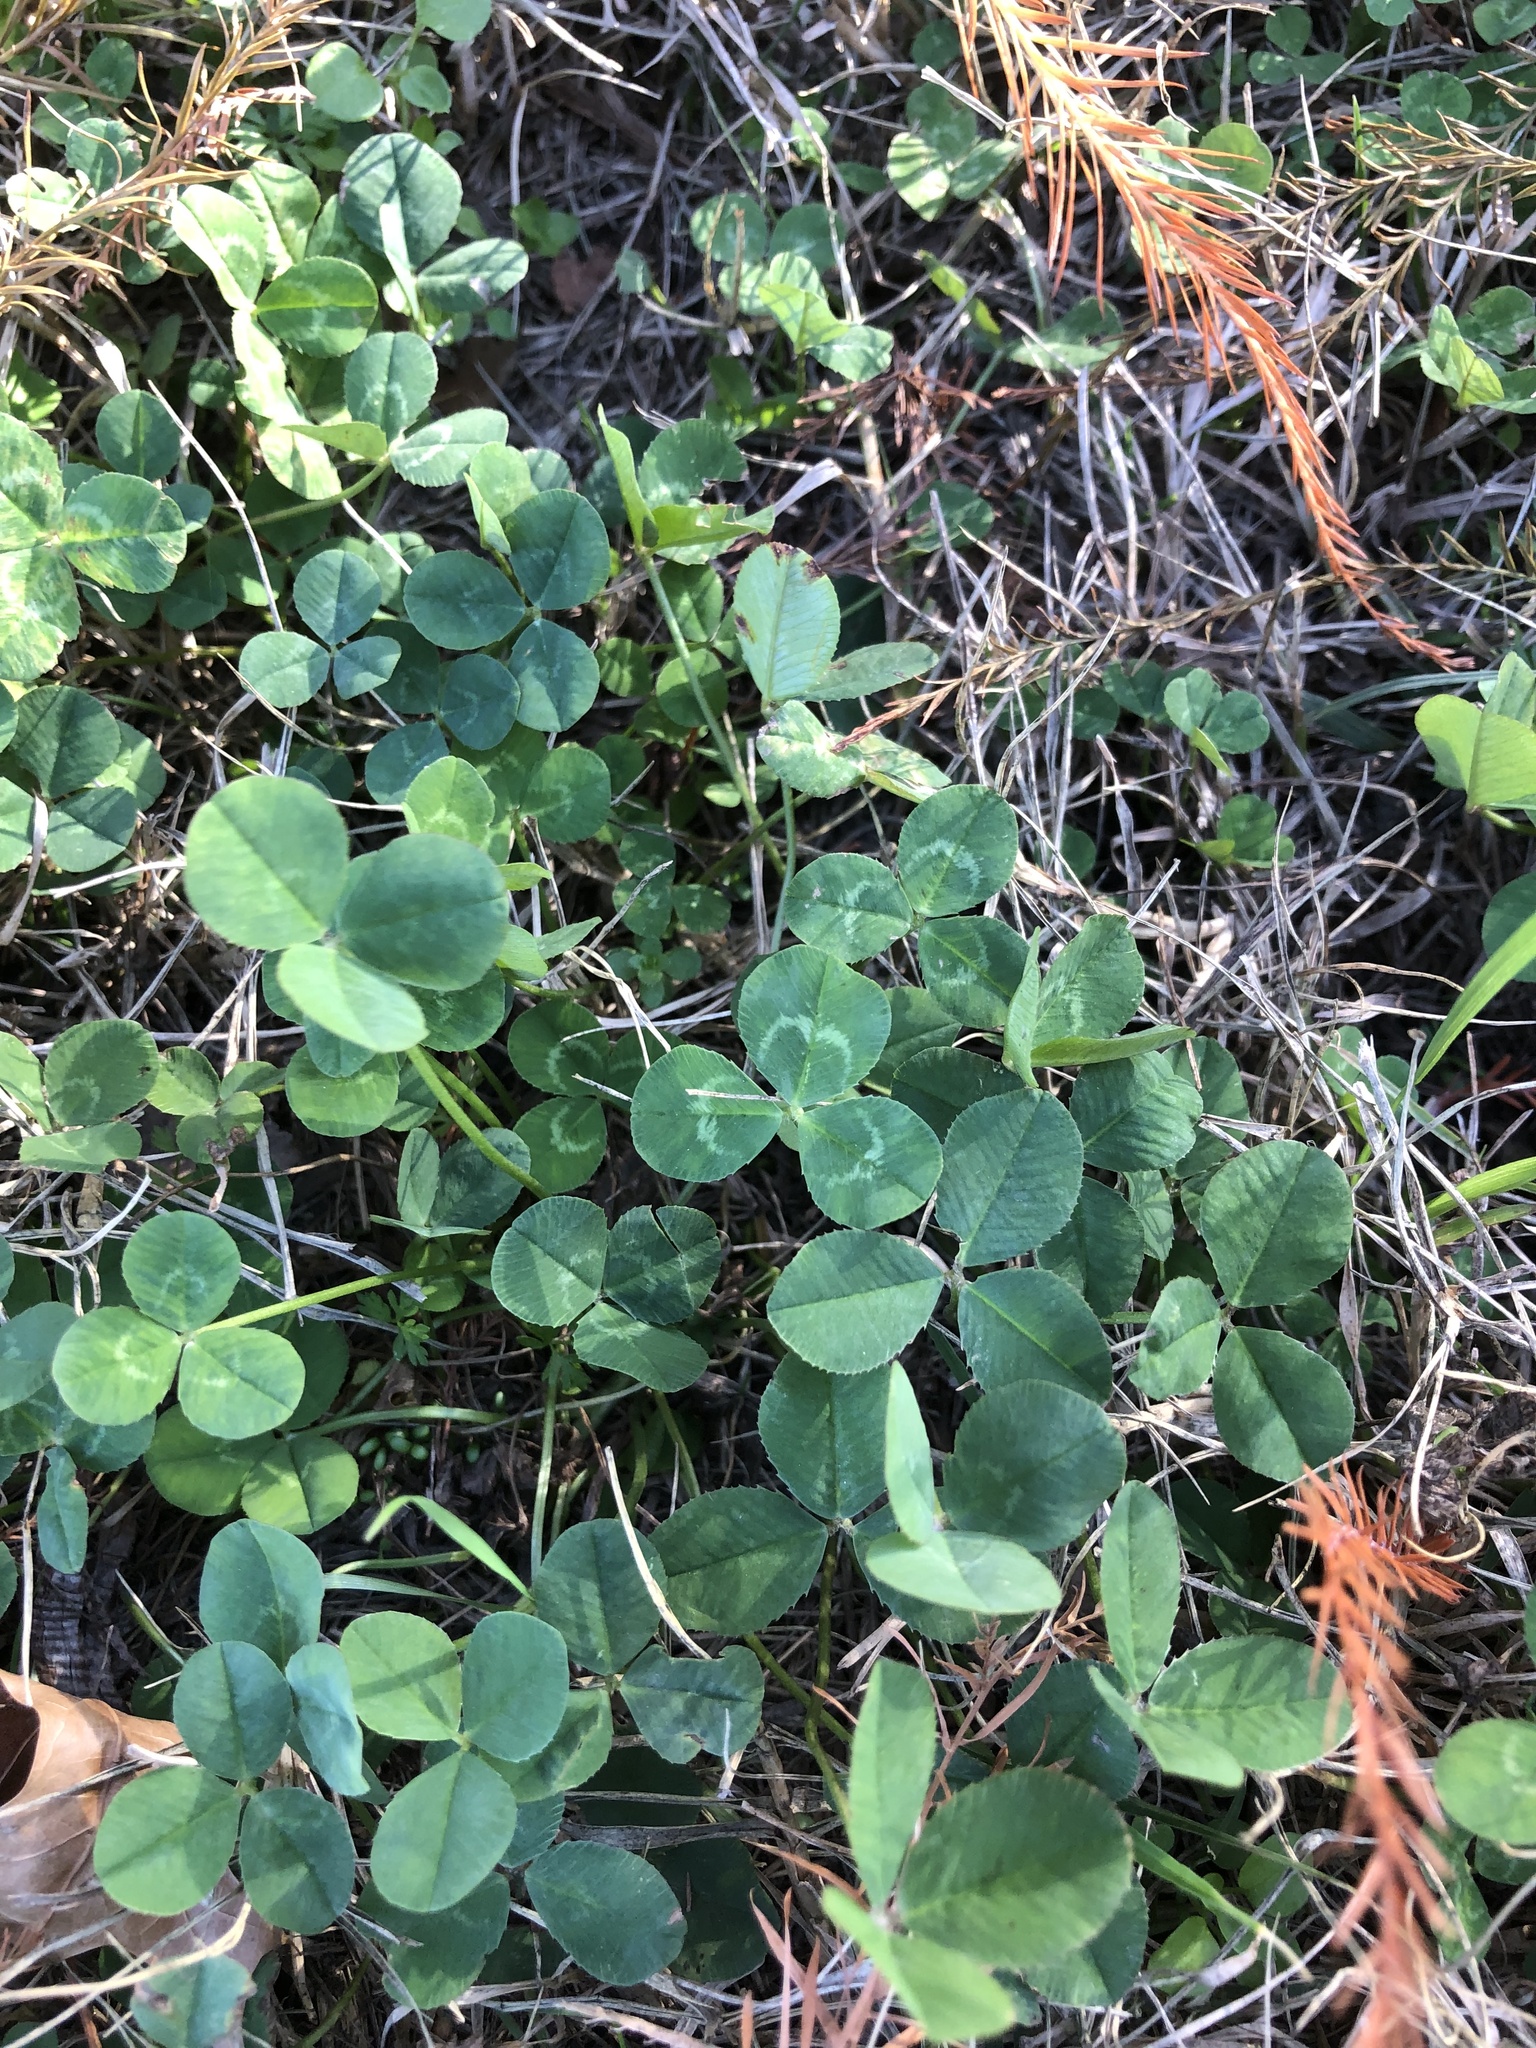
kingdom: Plantae
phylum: Tracheophyta
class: Magnoliopsida
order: Fabales
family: Fabaceae
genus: Trifolium
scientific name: Trifolium repens
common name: White clover
